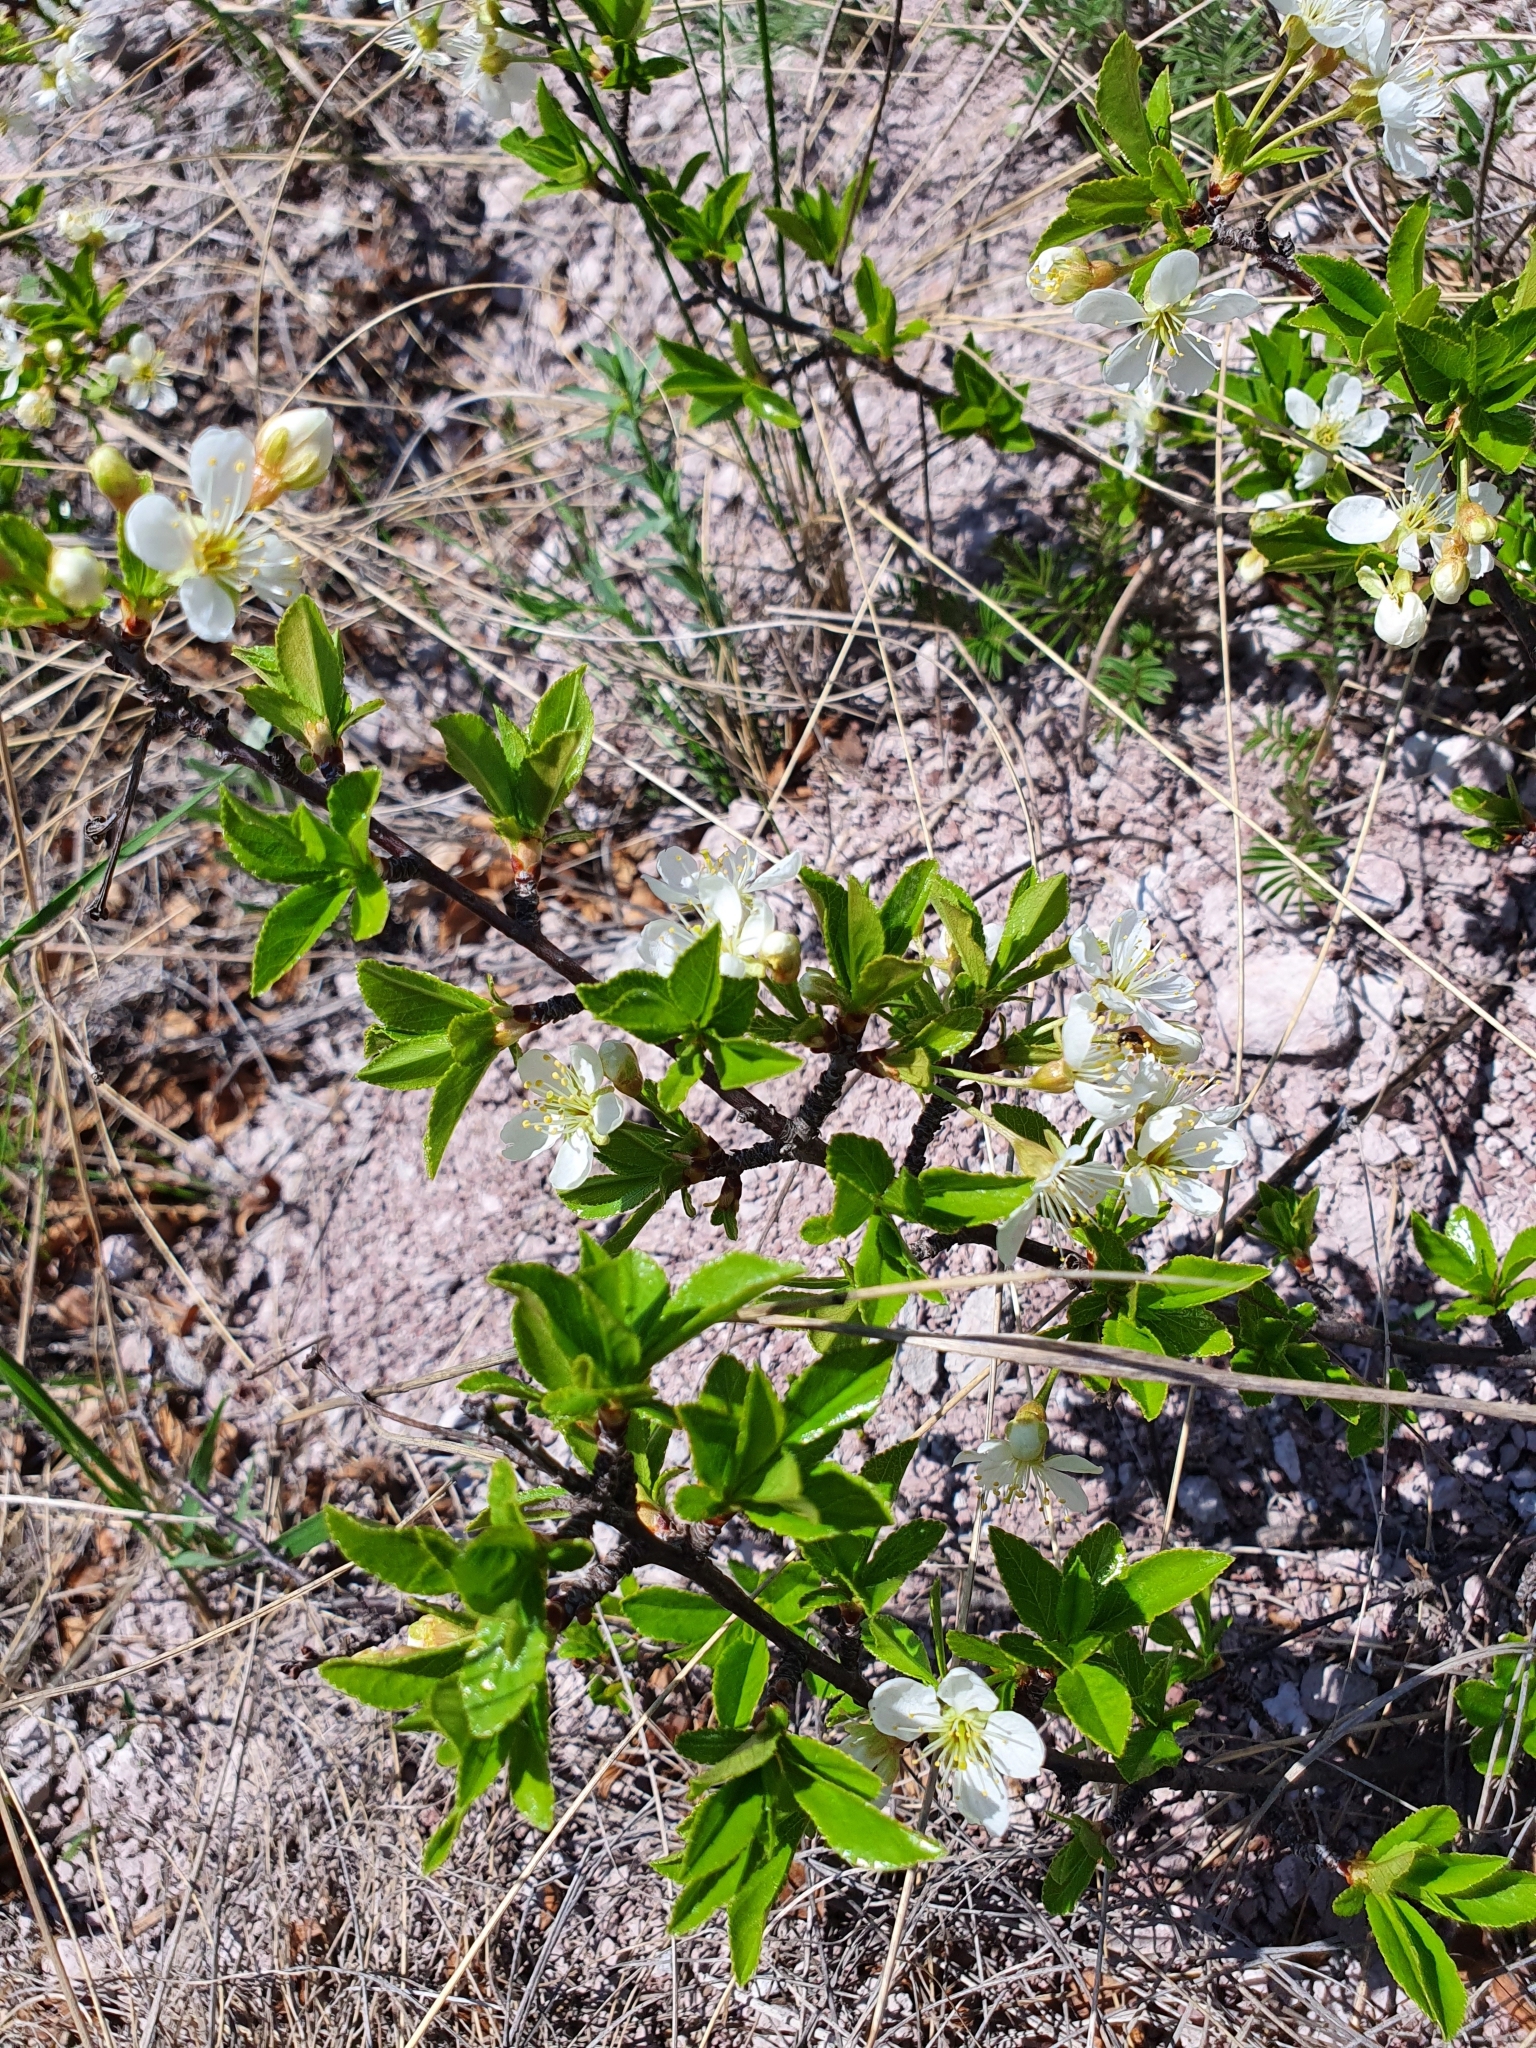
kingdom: Plantae
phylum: Tracheophyta
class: Magnoliopsida
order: Rosales
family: Rosaceae
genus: Prunus
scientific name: Prunus fruticosa
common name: European dwarf cherry
